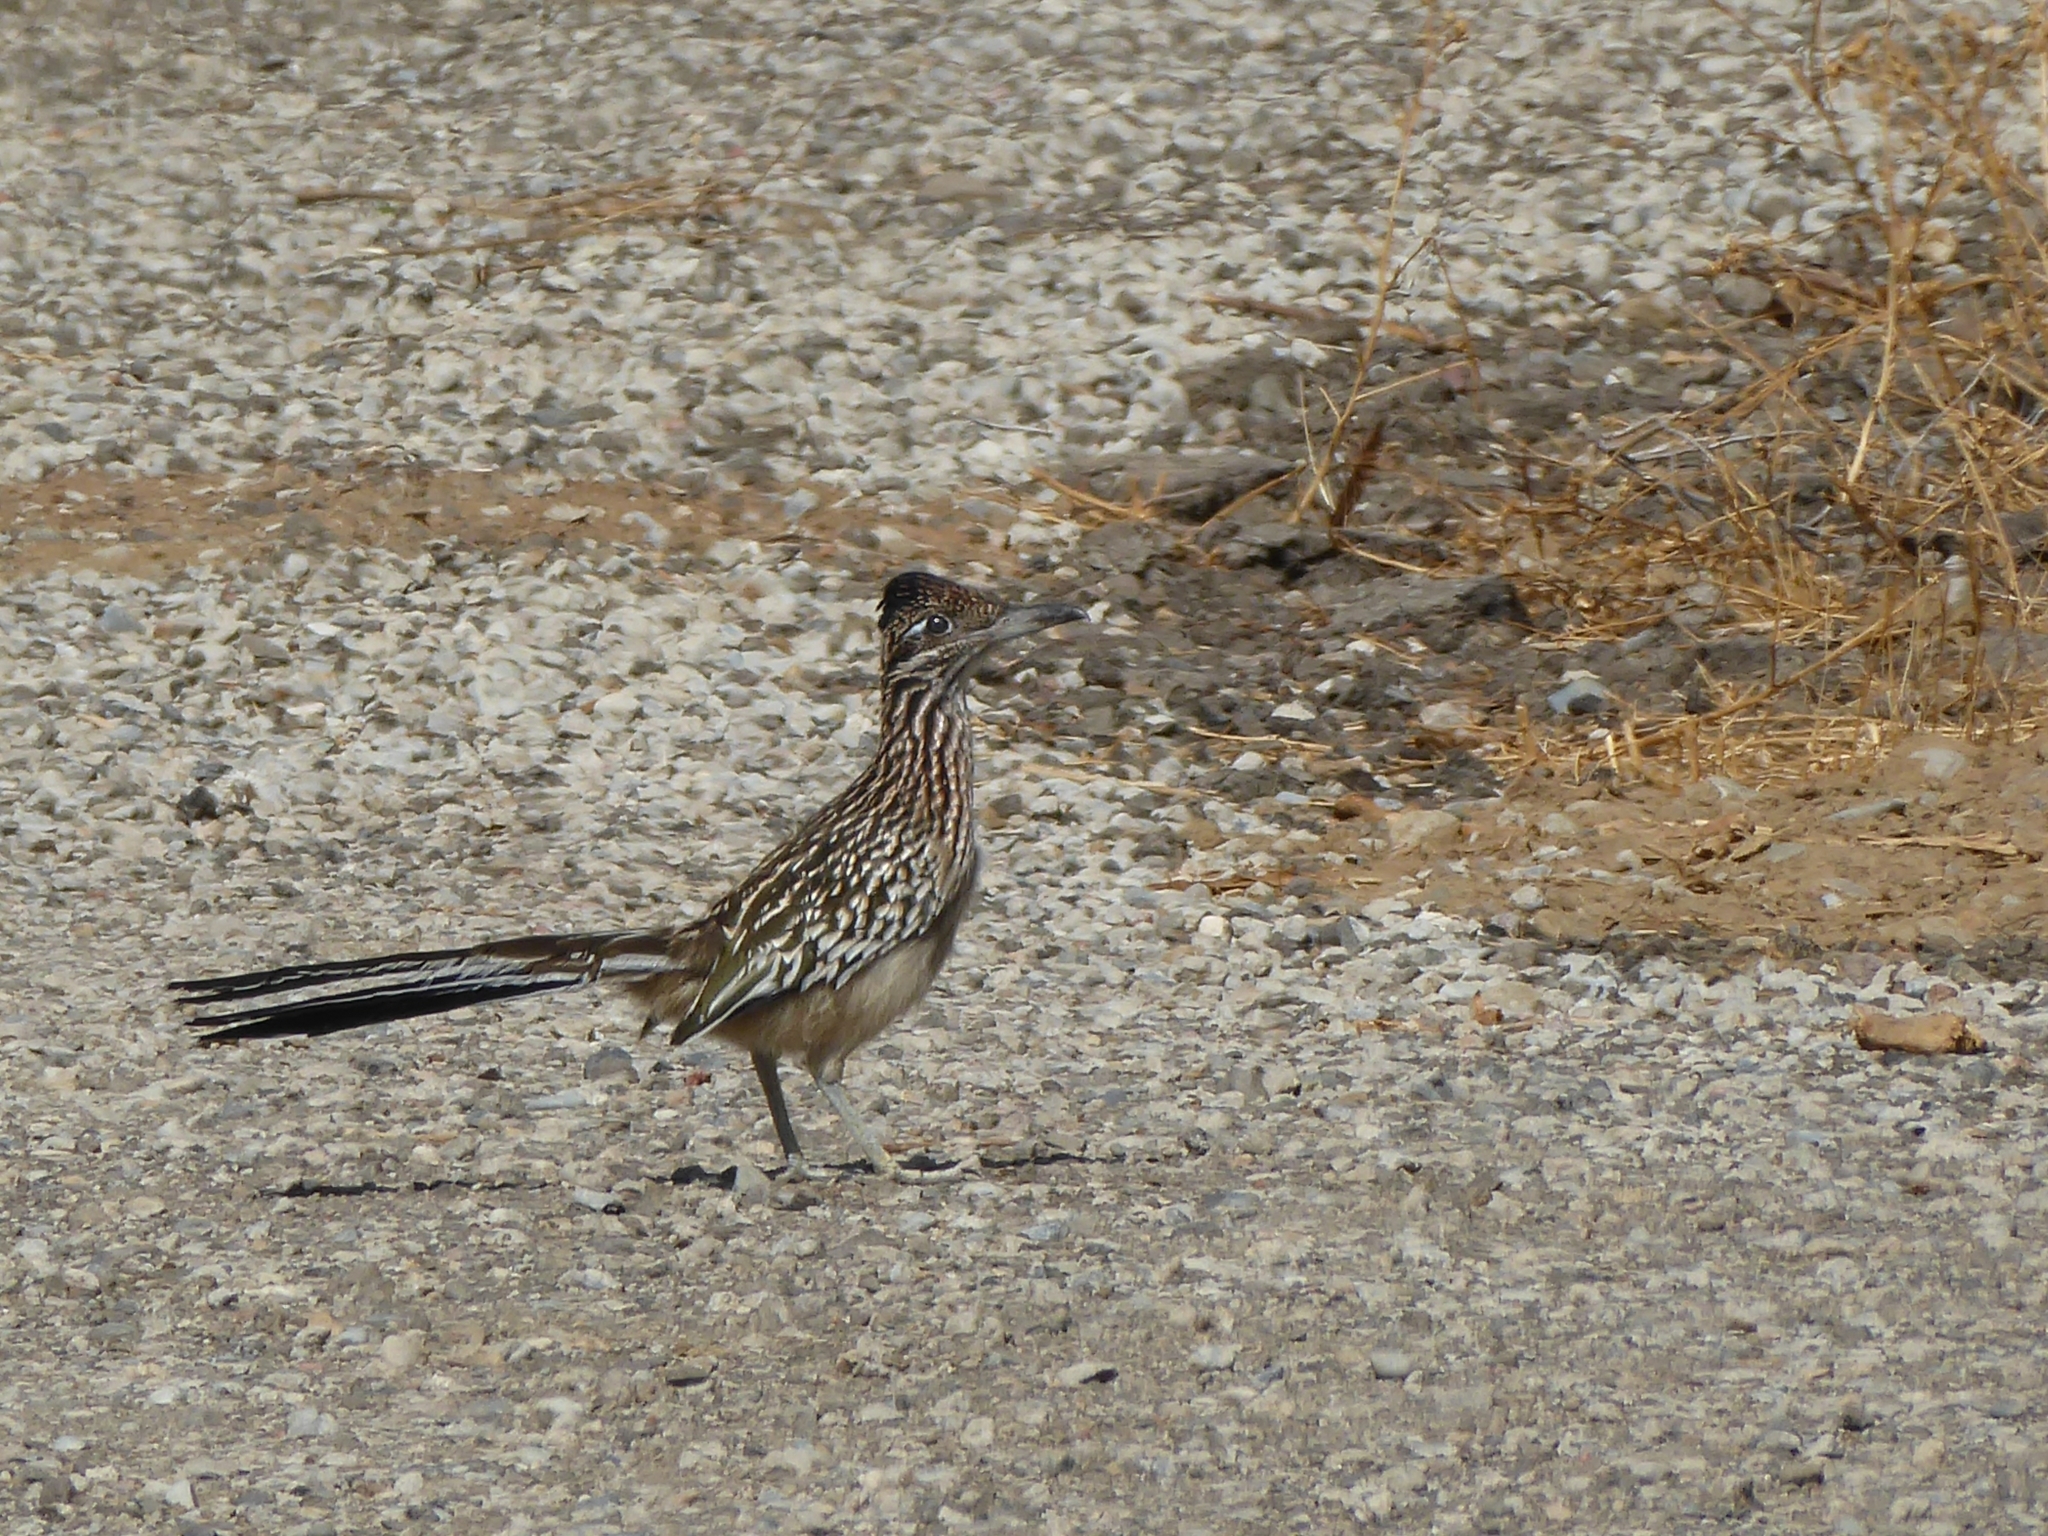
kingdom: Animalia
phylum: Chordata
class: Aves
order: Cuculiformes
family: Cuculidae
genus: Geococcyx
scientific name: Geococcyx californianus
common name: Greater roadrunner
